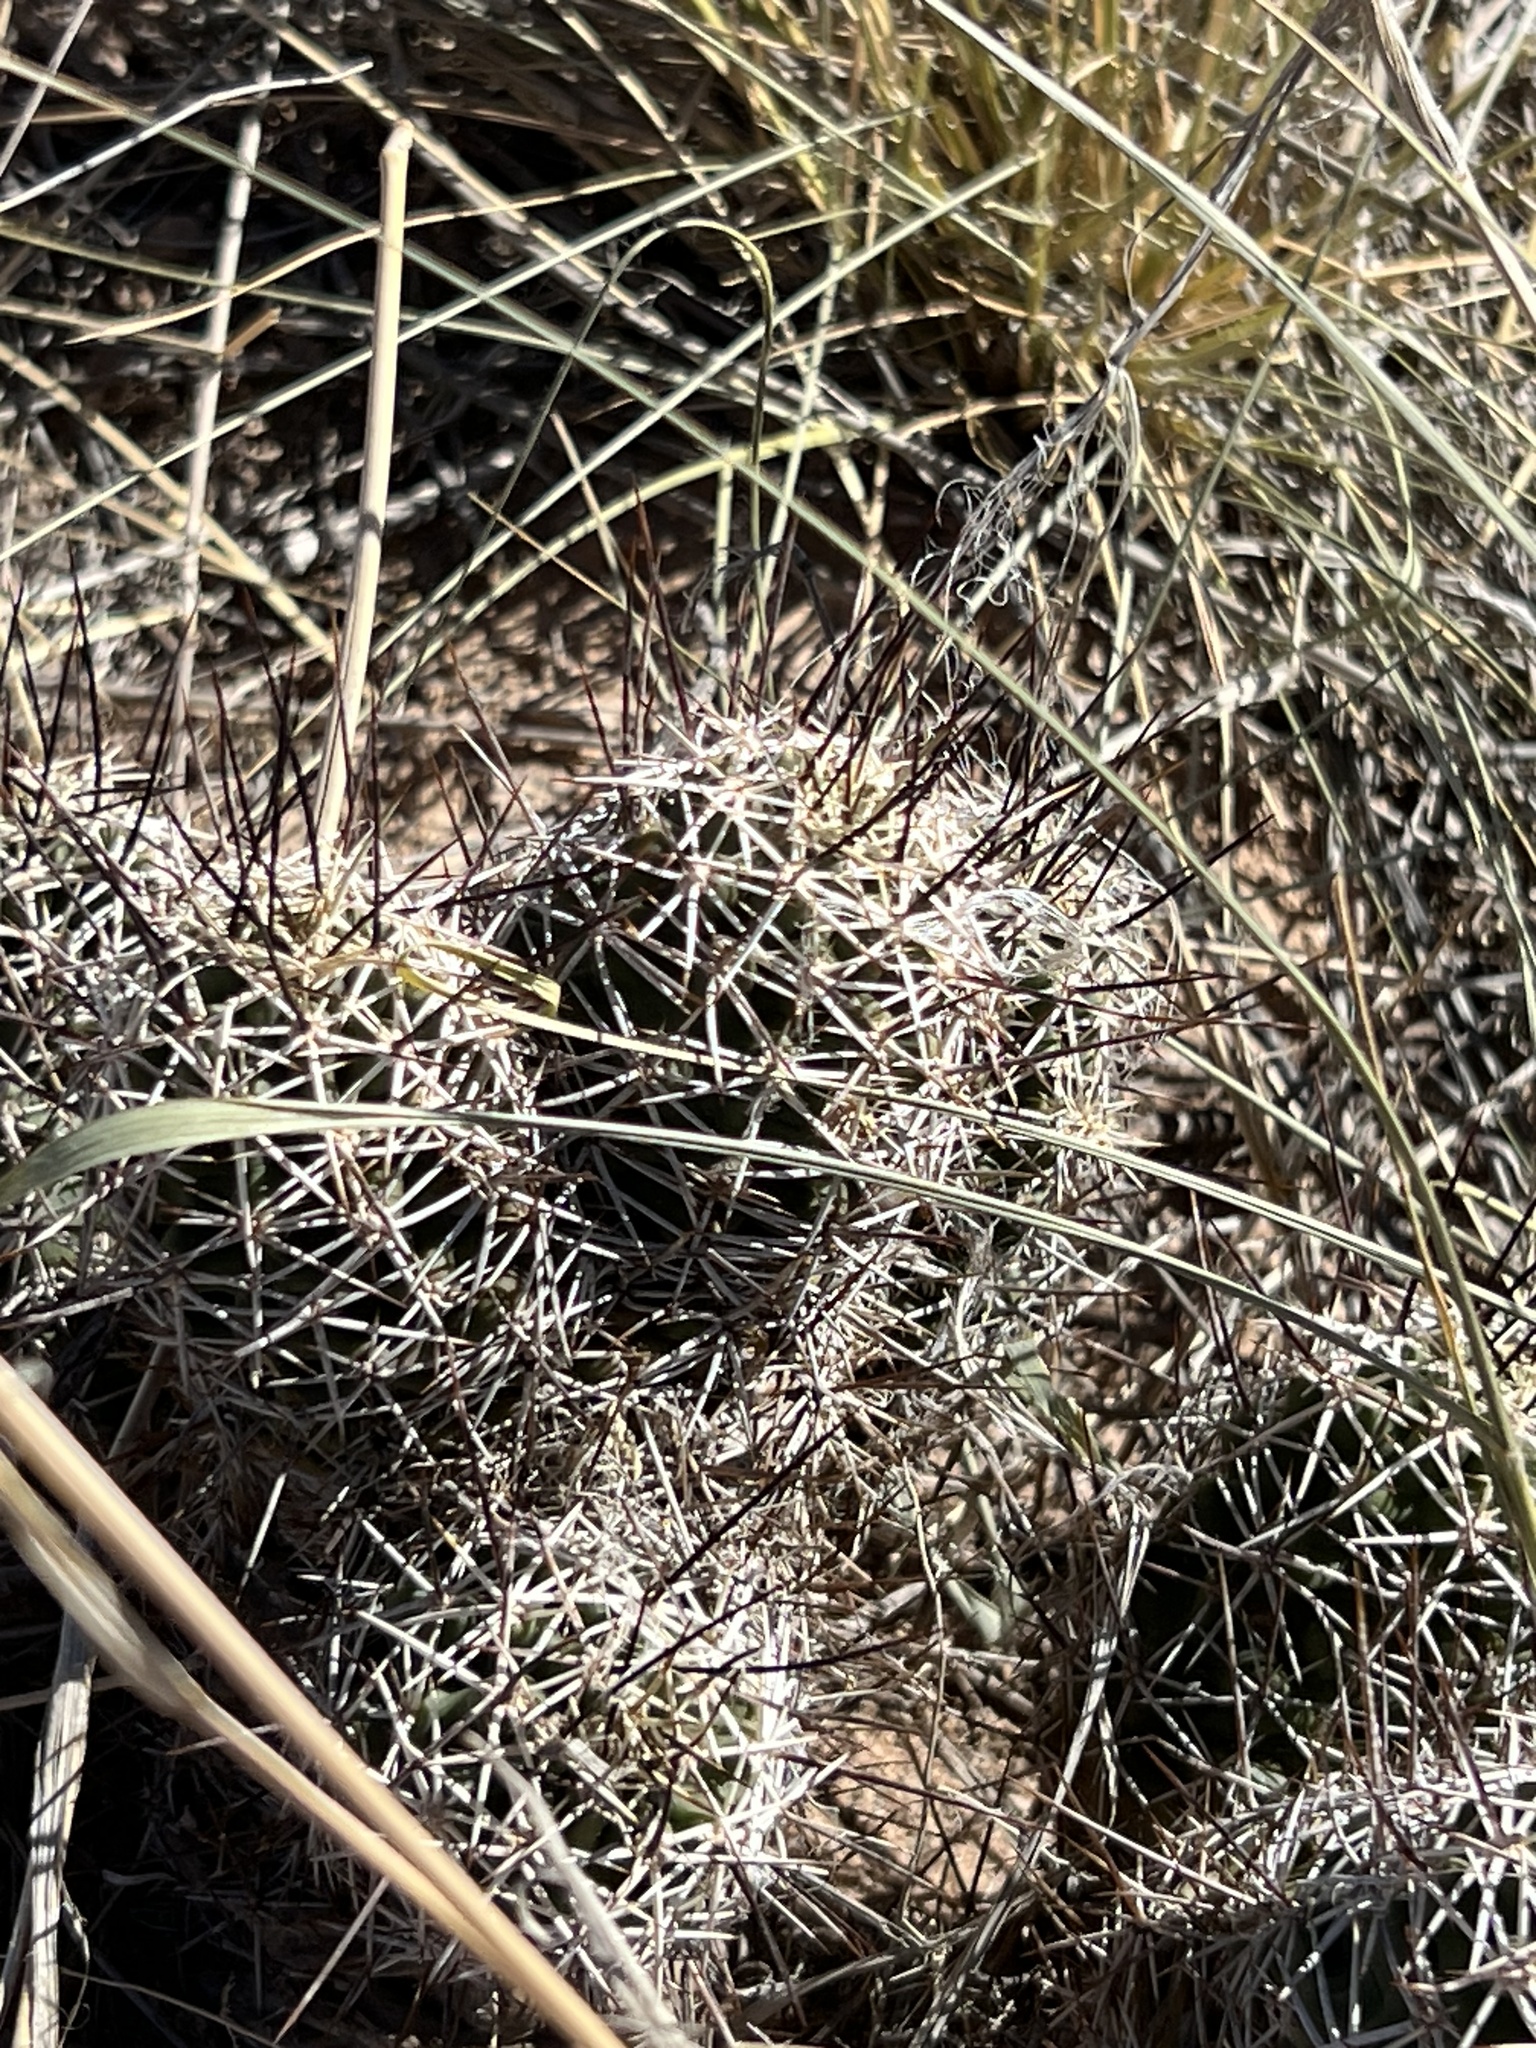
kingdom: Plantae
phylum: Tracheophyta
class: Magnoliopsida
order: Caryophyllales
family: Cactaceae
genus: Echinocereus
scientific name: Echinocereus fendleri
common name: Fendler's hedgehog cactus
